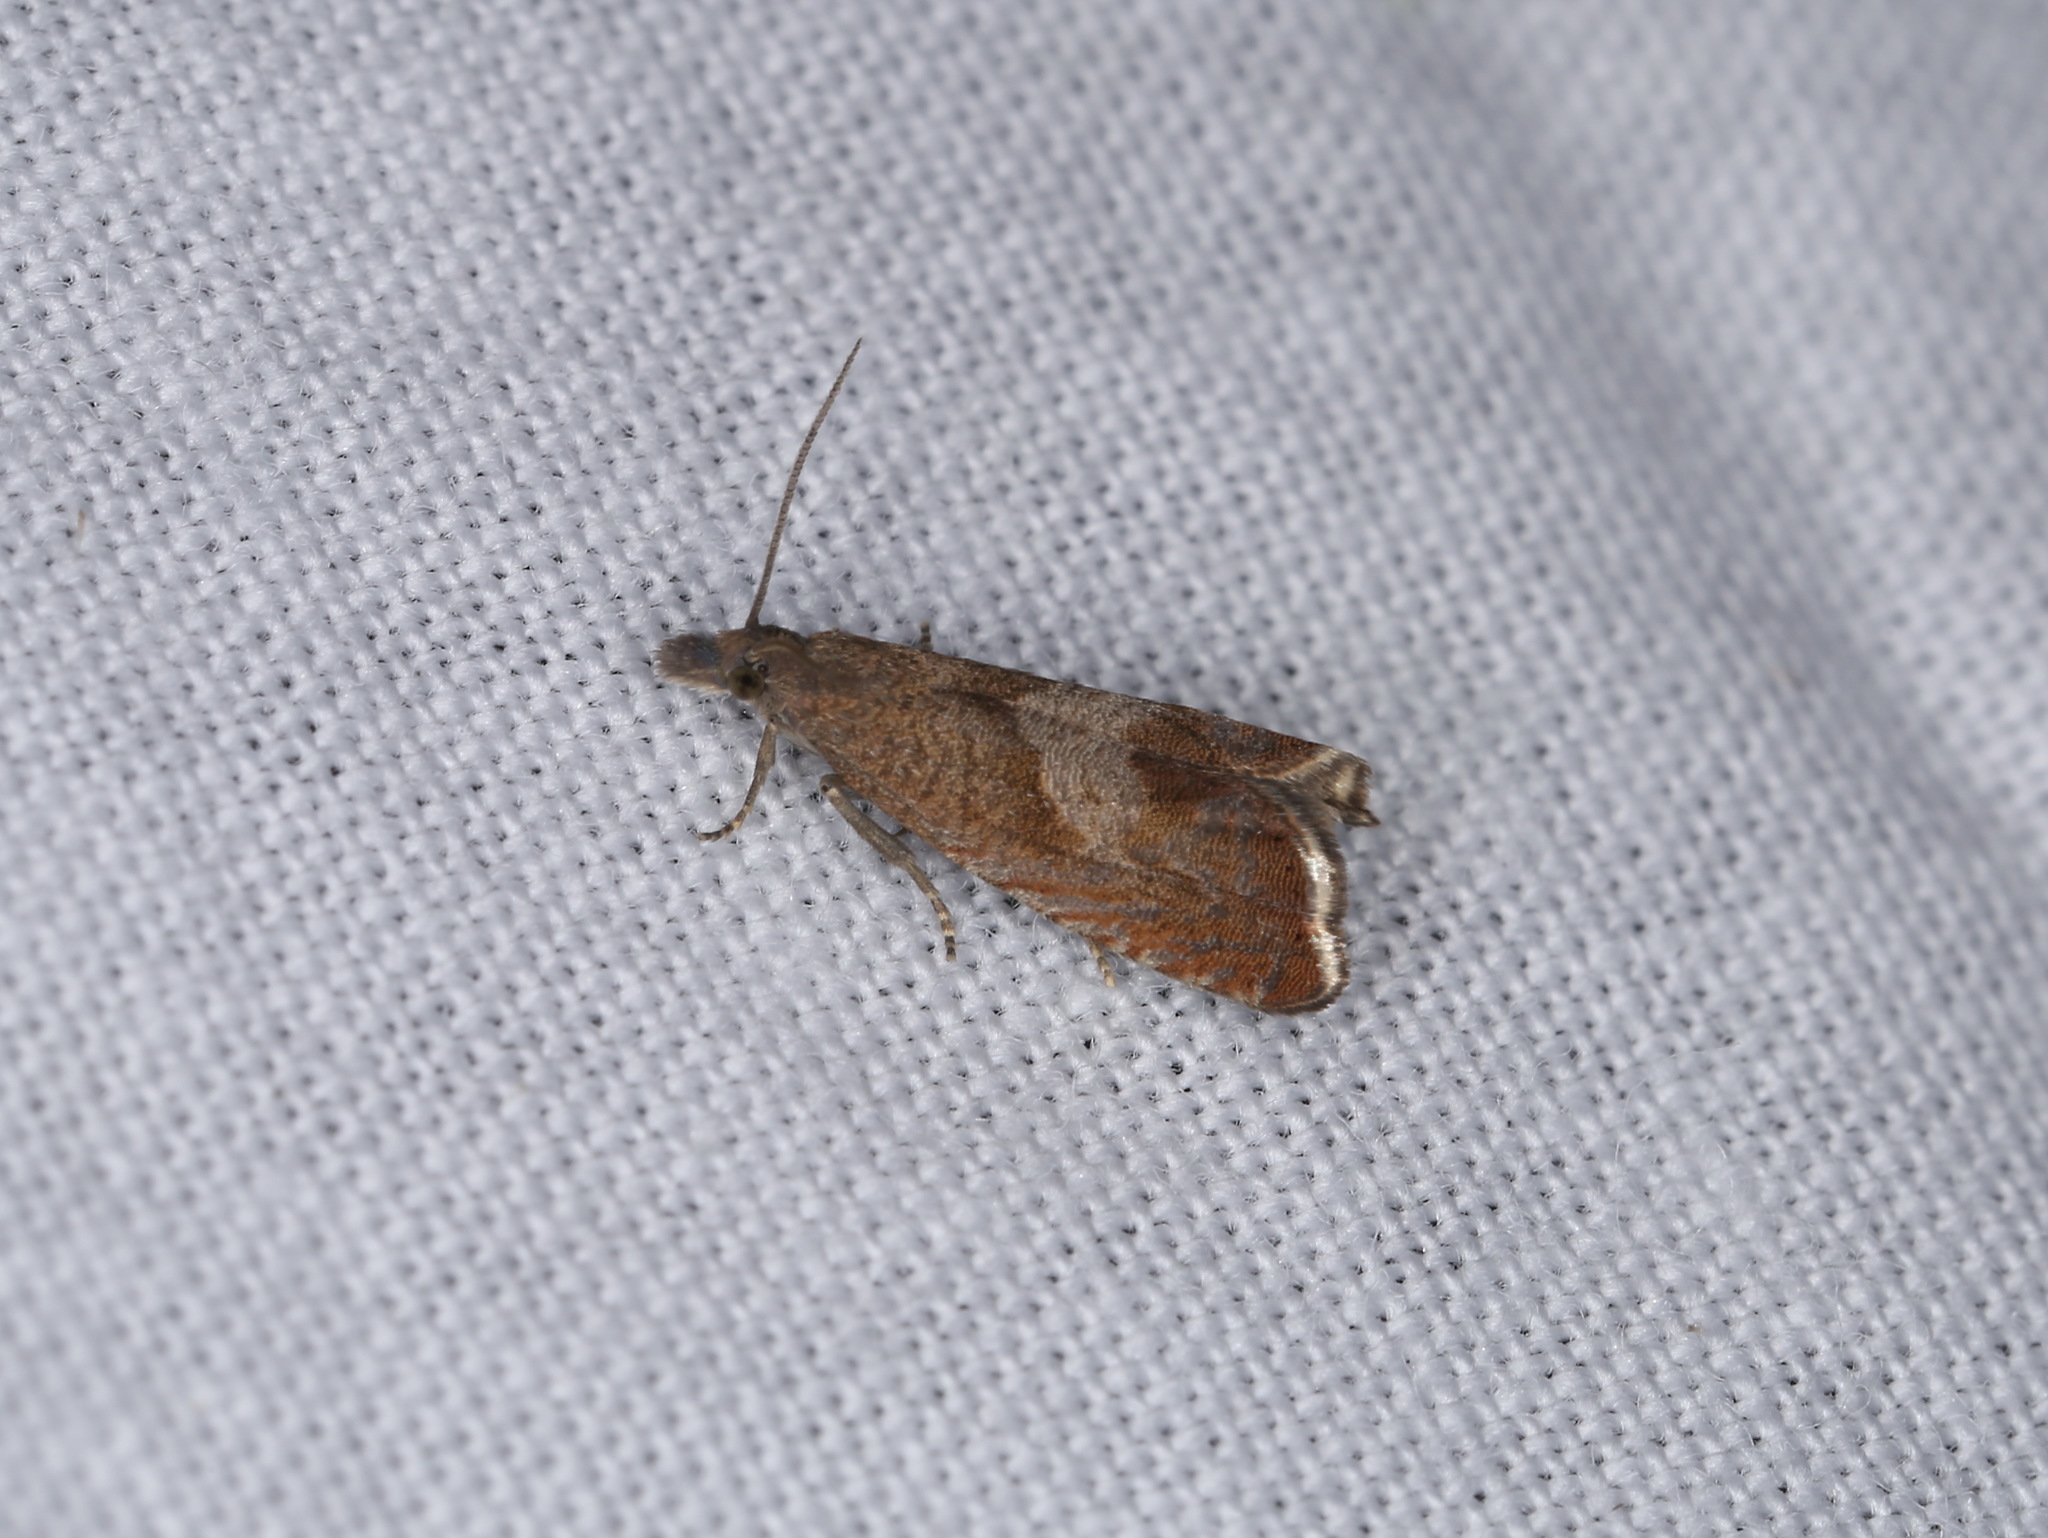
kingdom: Animalia
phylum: Arthropoda
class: Insecta
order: Lepidoptera
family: Tortricidae
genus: Dichrorampha
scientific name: Dichrorampha acuminatana
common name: Sharp-winged drill
